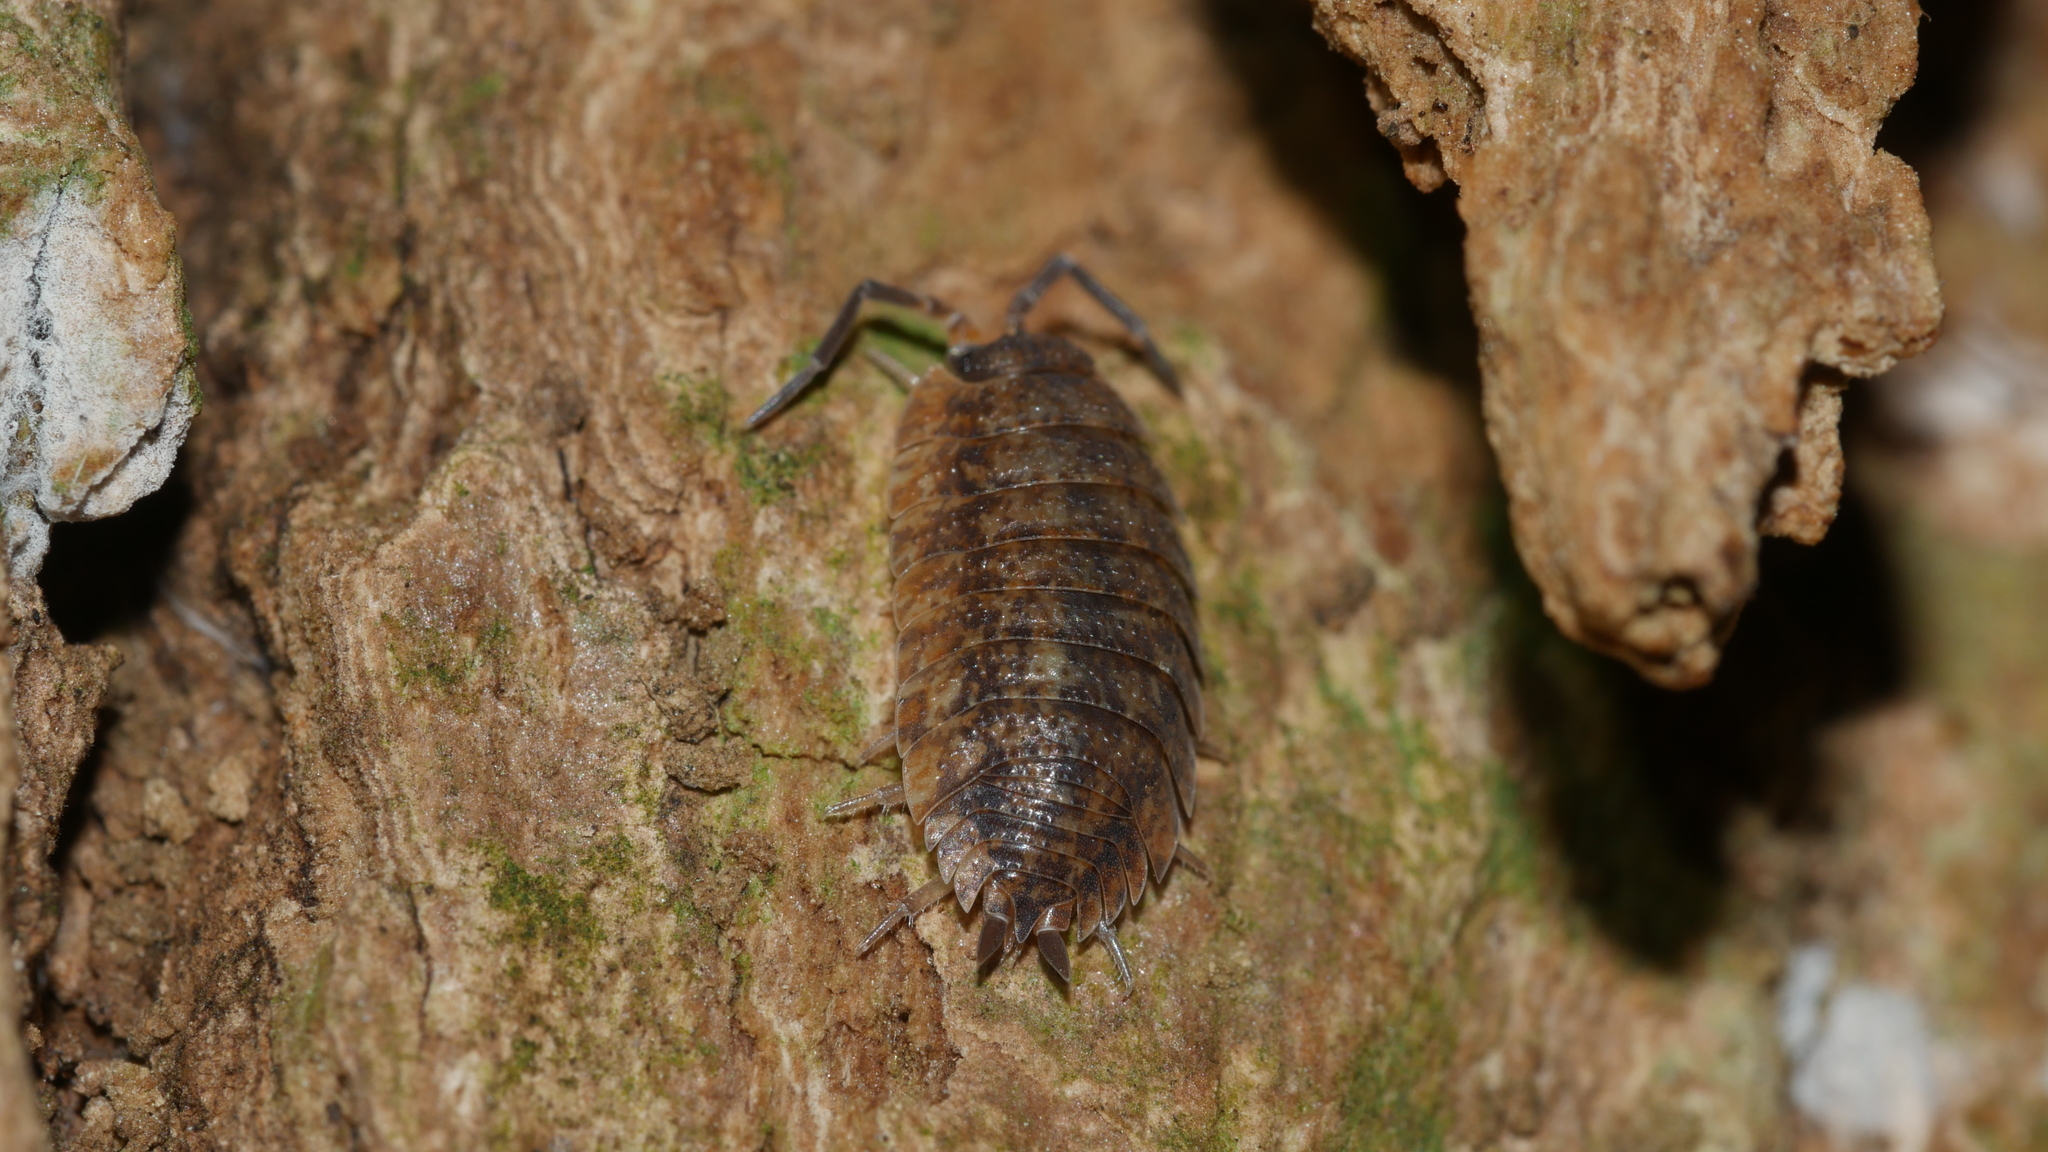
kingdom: Animalia
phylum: Arthropoda
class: Malacostraca
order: Isopoda
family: Porcellionidae
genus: Porcellio
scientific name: Porcellio scaber
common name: Common rough woodlouse
